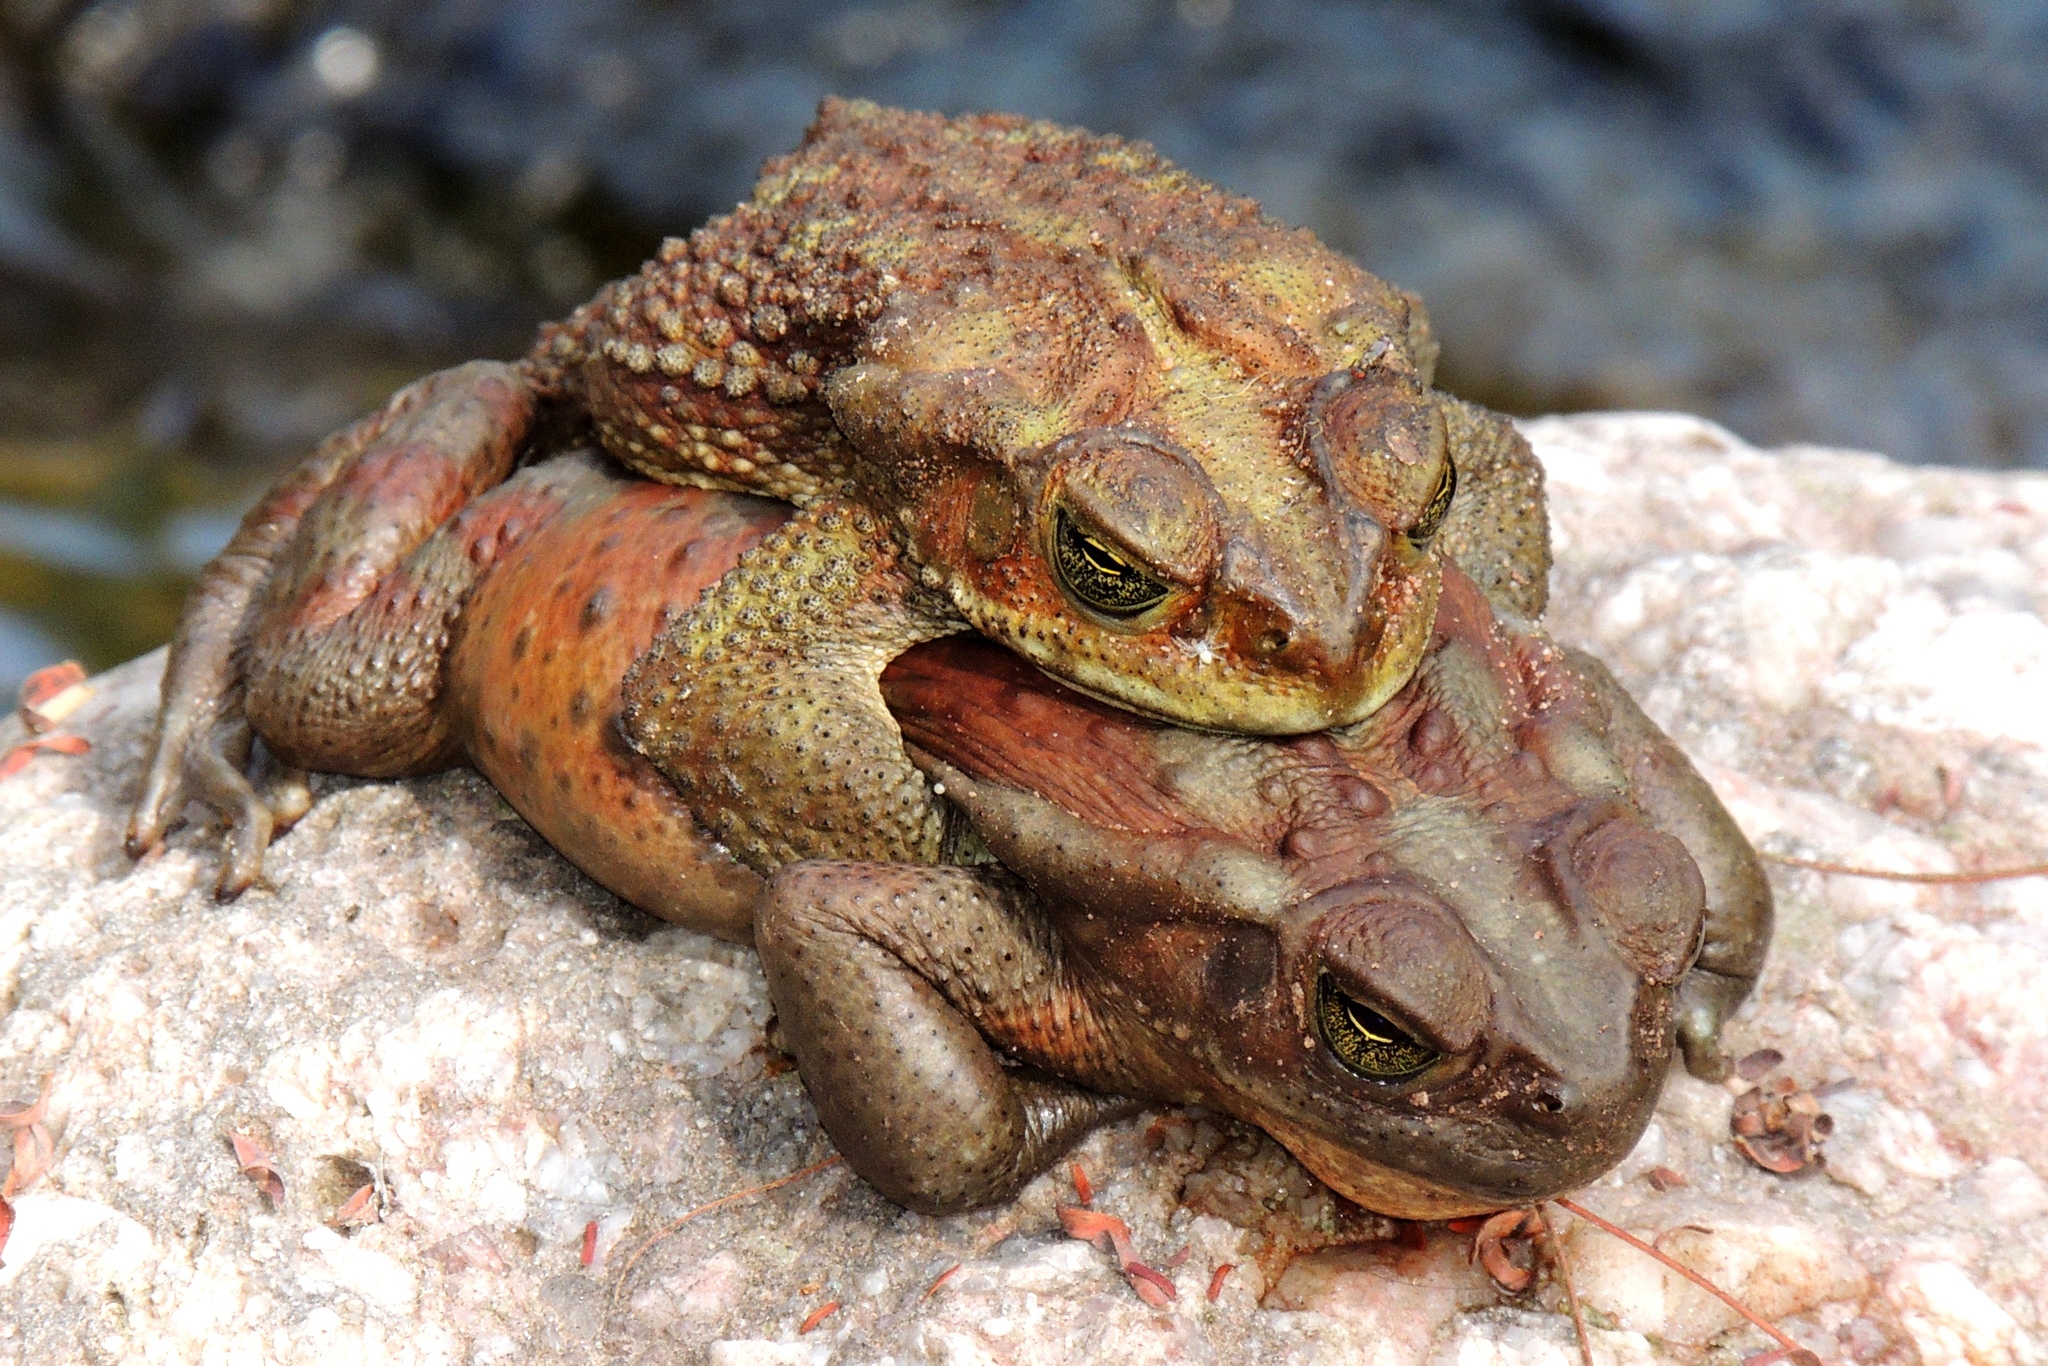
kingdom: Animalia
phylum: Chordata
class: Amphibia
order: Anura
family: Bufonidae
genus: Rhinella
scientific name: Rhinella arenarum
